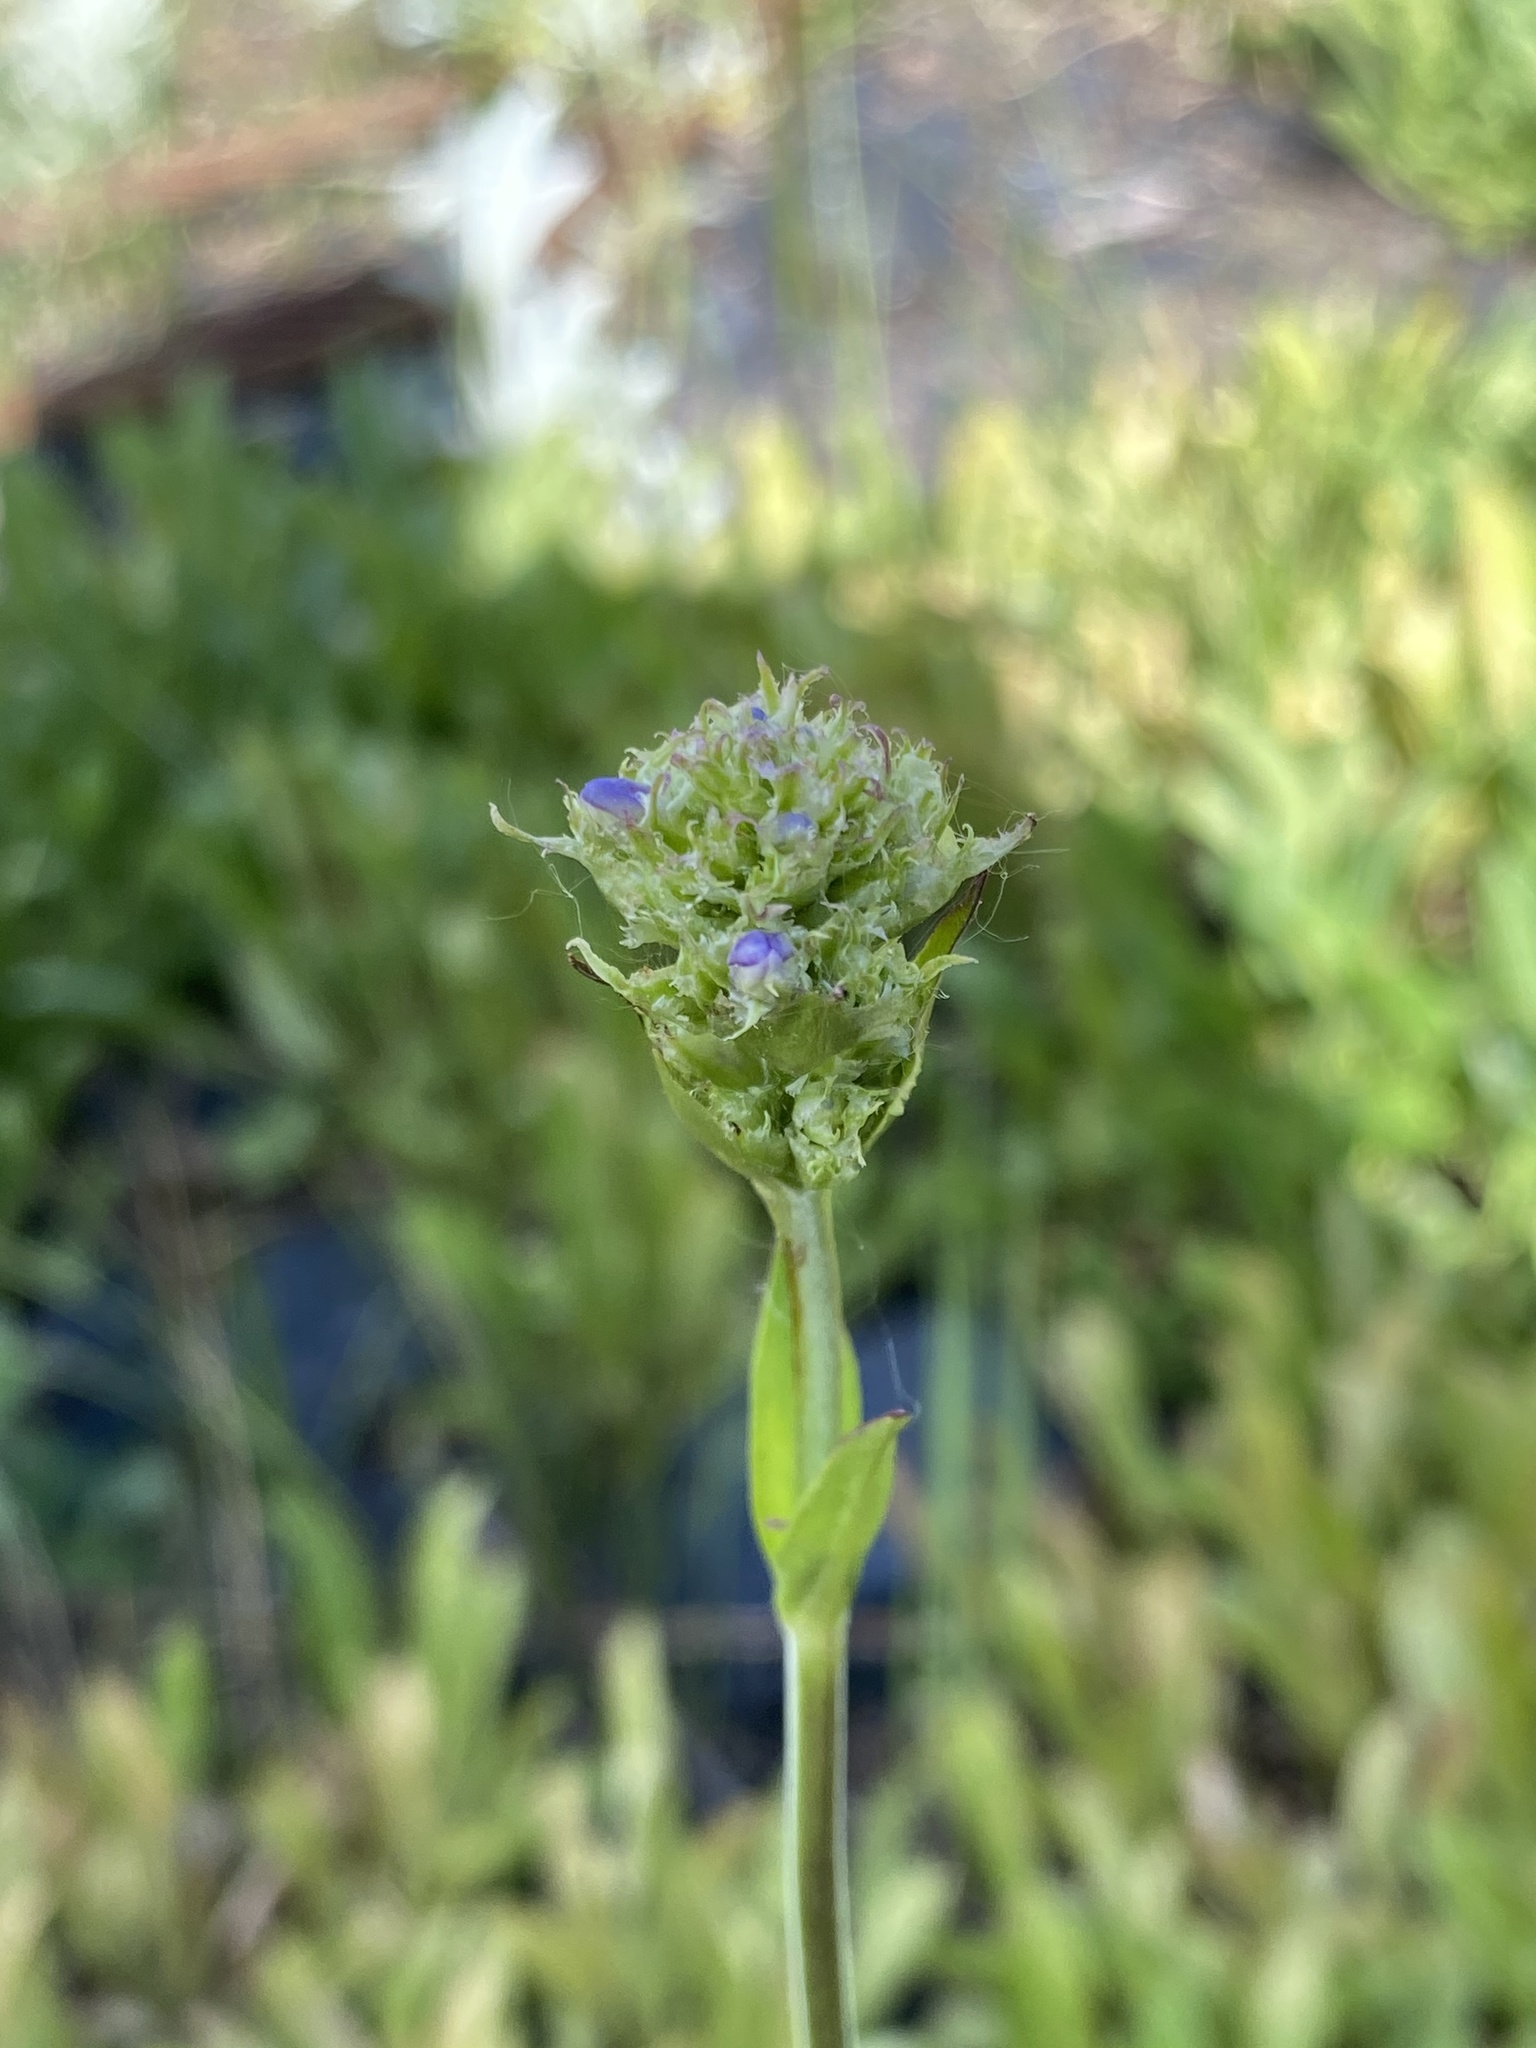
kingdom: Plantae
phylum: Tracheophyta
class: Magnoliopsida
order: Lamiales
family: Plantaginaceae
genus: Penstemon
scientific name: Penstemon procerus
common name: Small-flower penstemon
